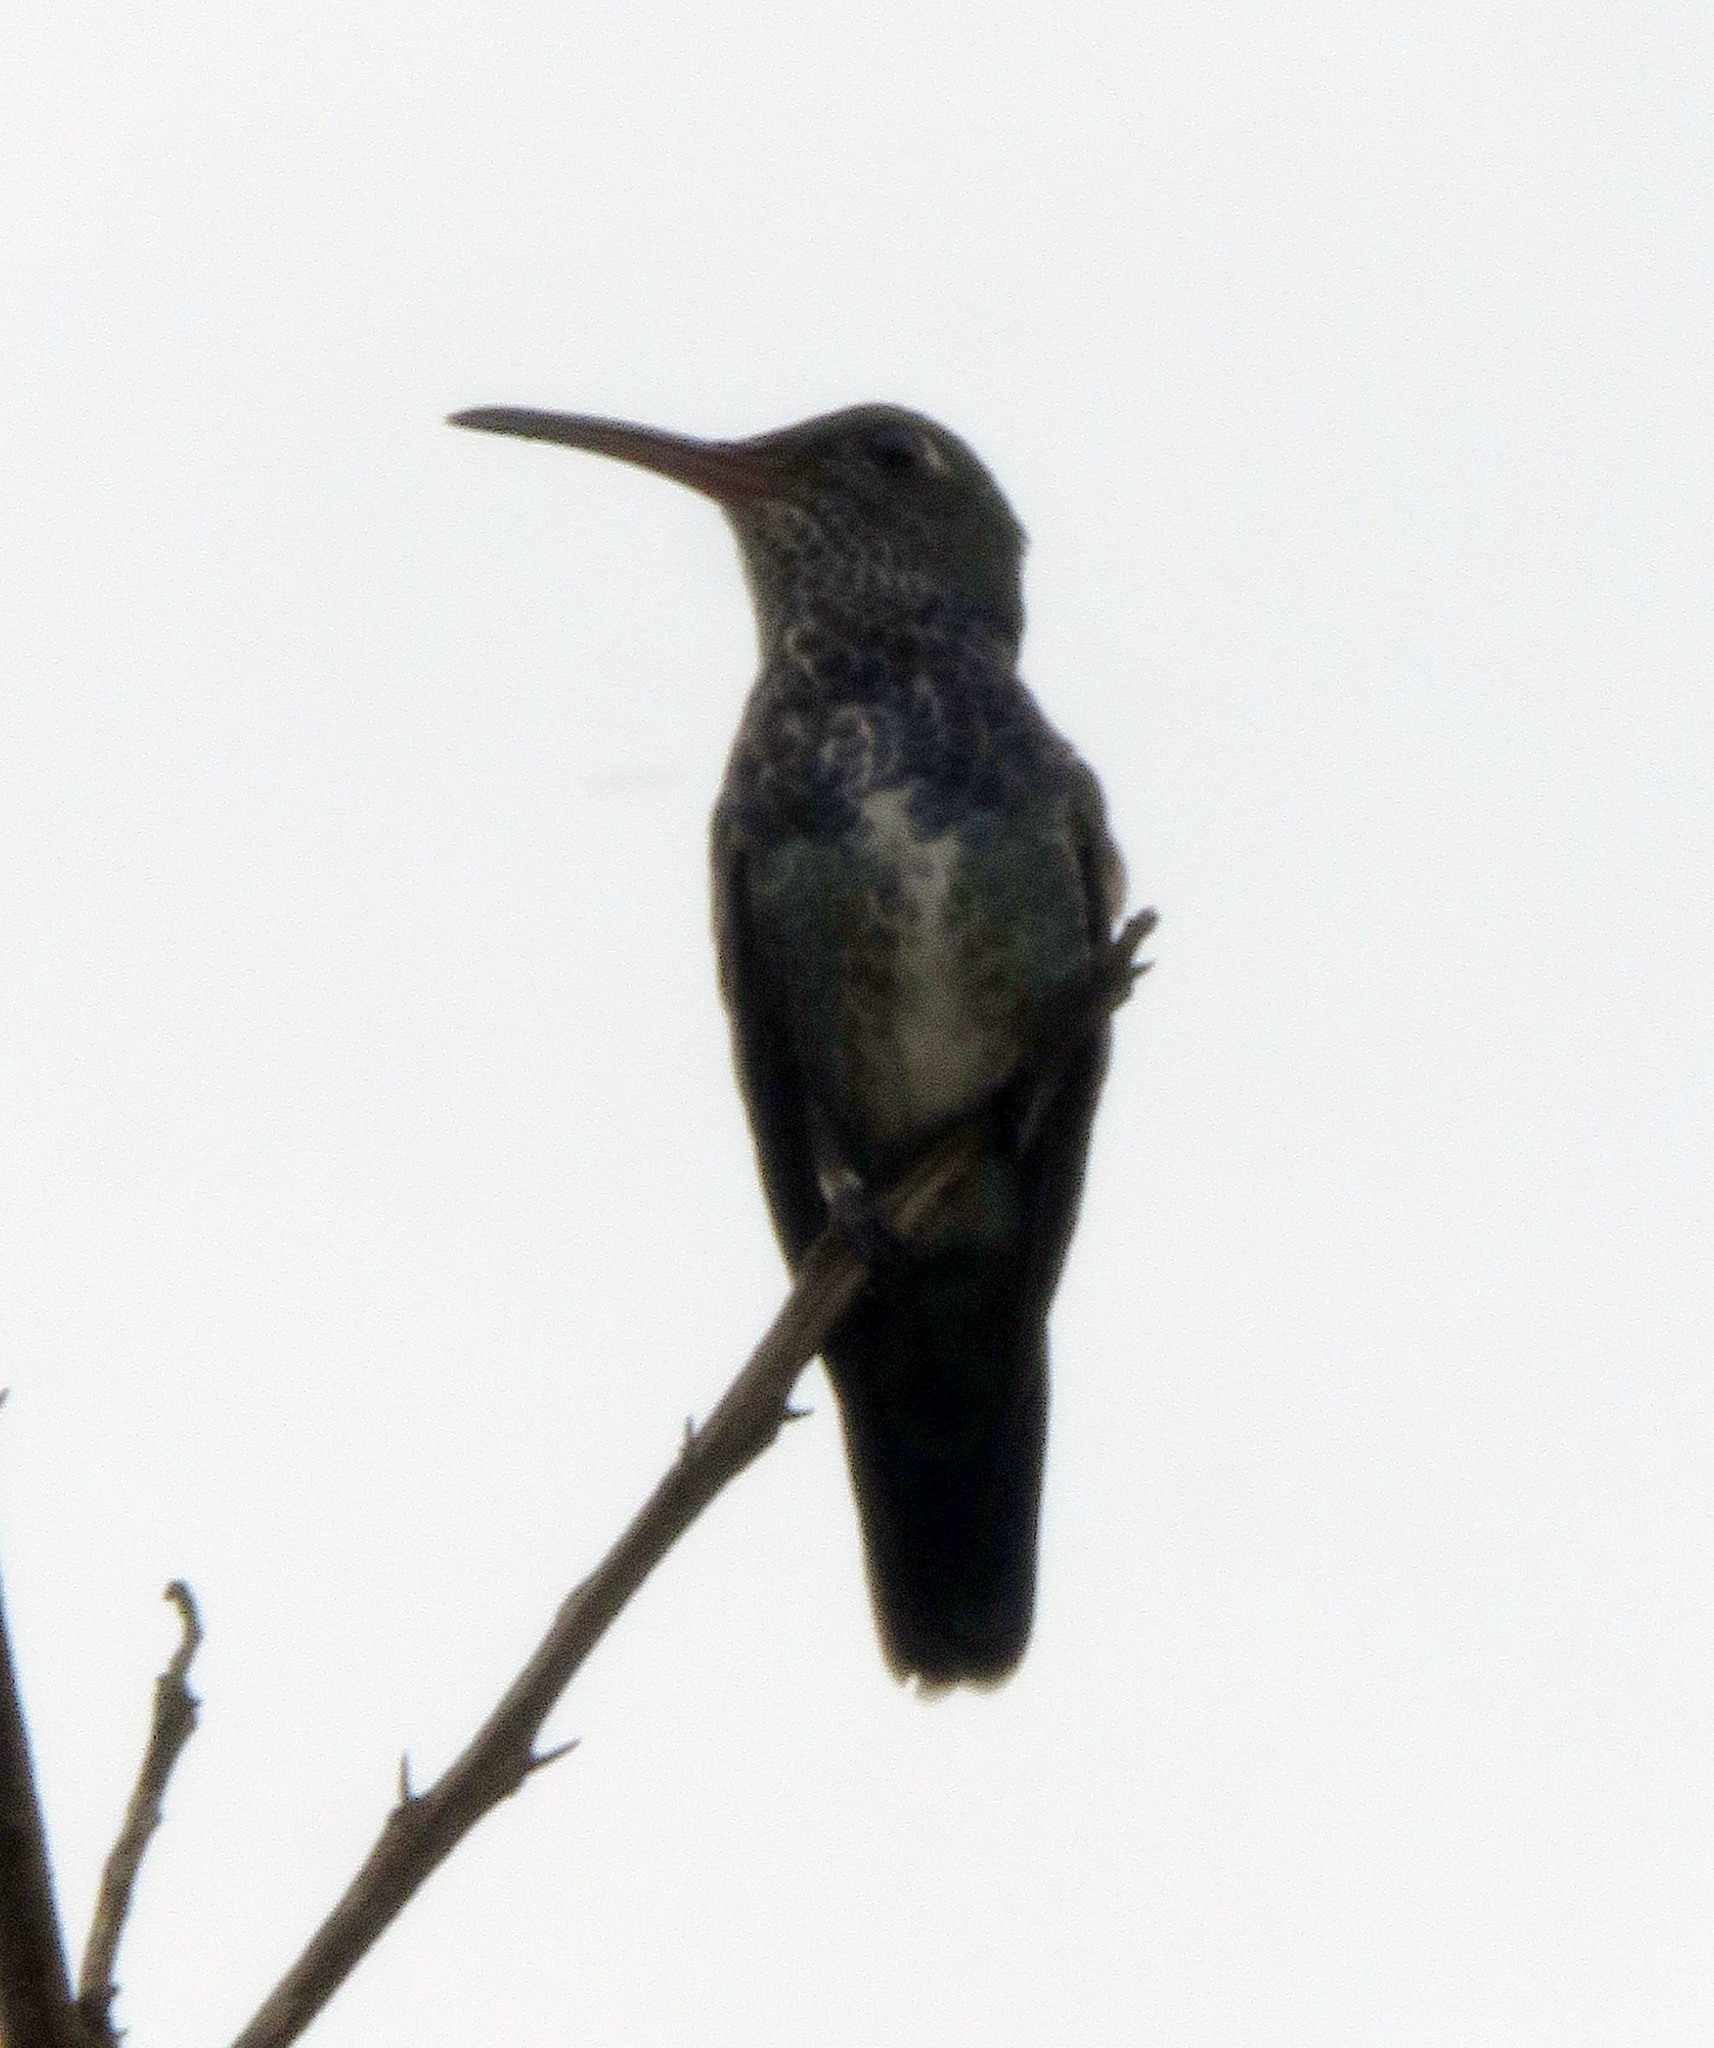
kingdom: Animalia
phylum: Chordata
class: Aves
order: Apodiformes
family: Trochilidae
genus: Chionomesa
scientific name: Chionomesa lactea
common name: Sapphire-spangled emerald
